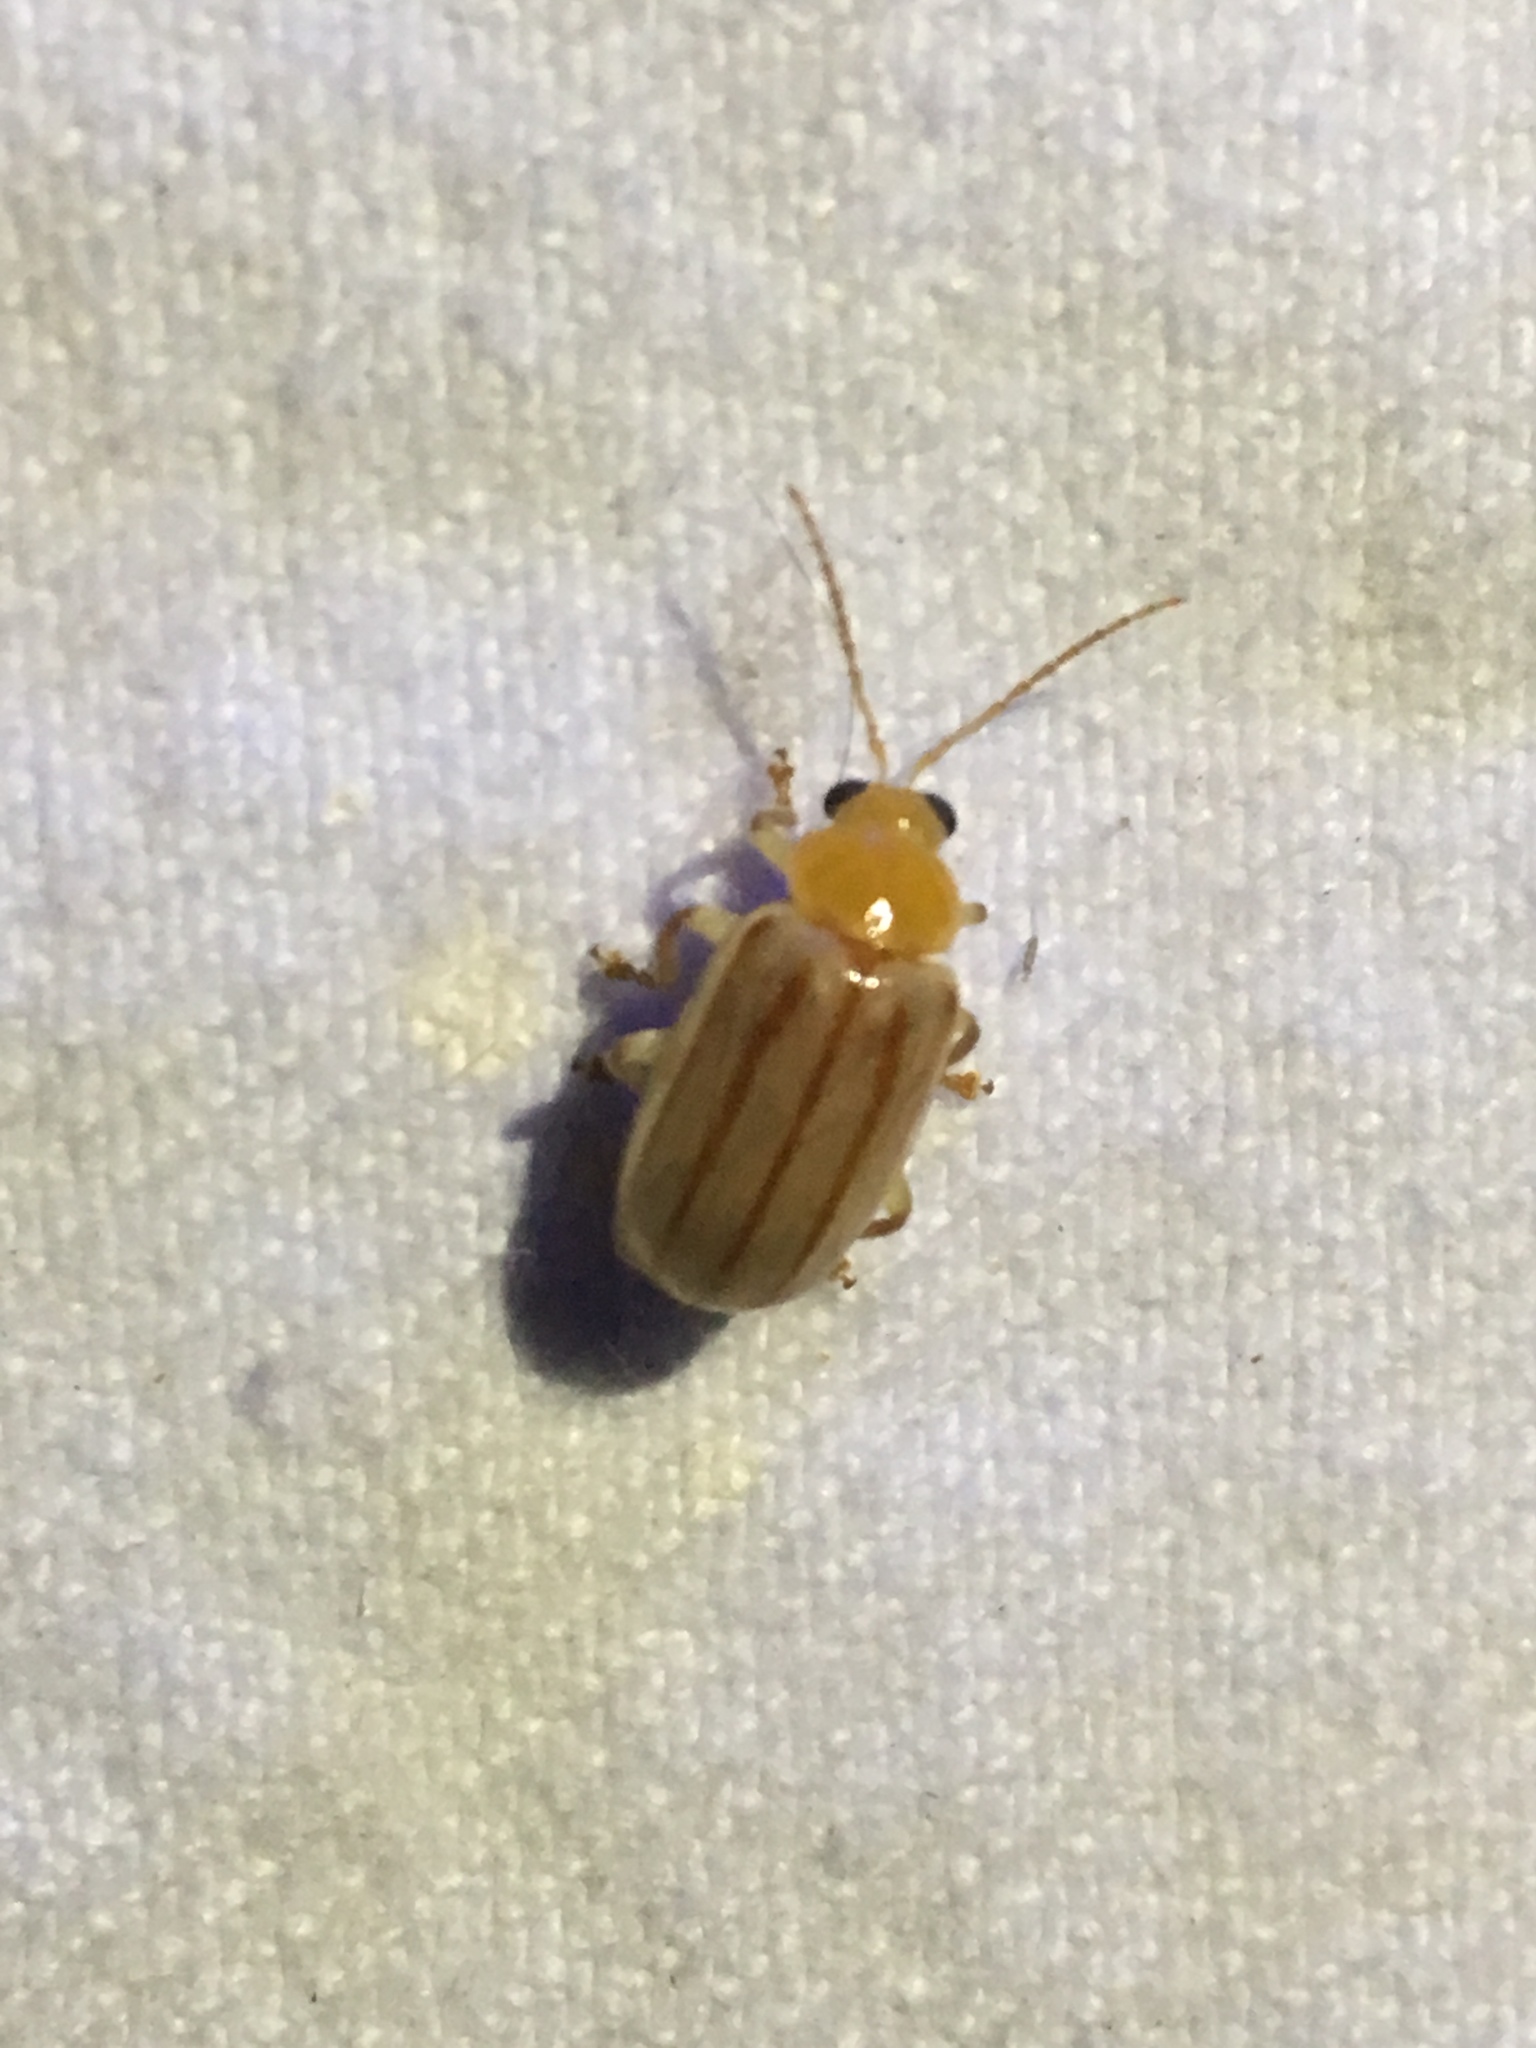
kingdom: Animalia
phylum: Arthropoda
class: Insecta
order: Coleoptera
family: Chrysomelidae
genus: Exora
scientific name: Exora encaustica
